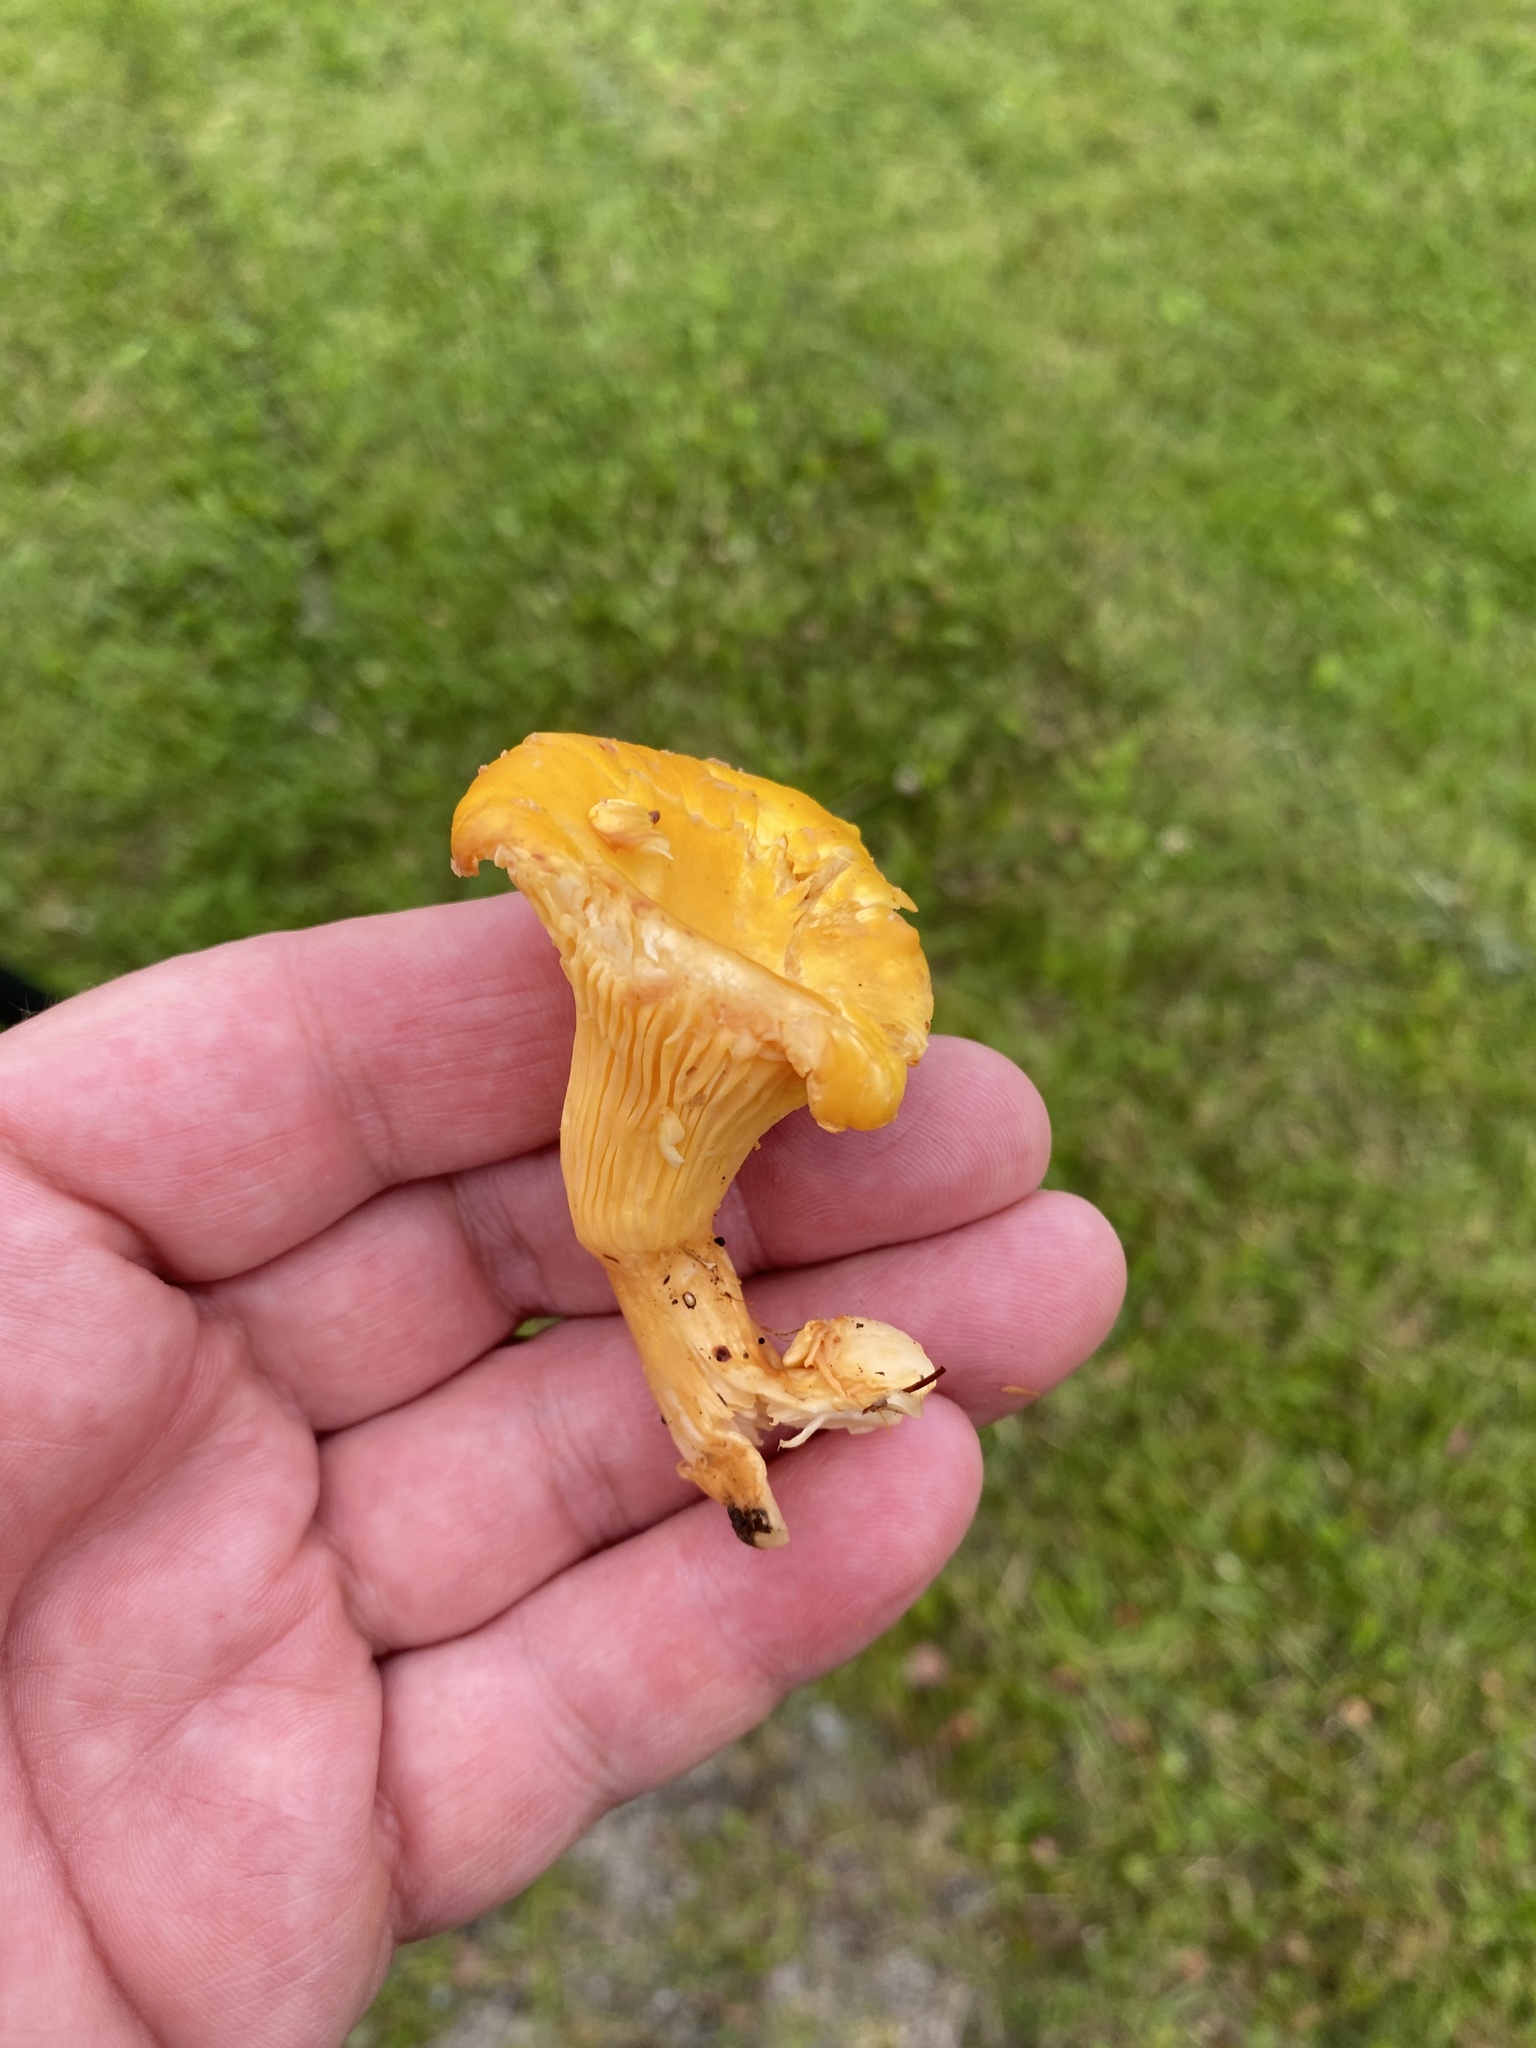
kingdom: Fungi
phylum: Basidiomycota
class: Agaricomycetes
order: Cantharellales
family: Hydnaceae
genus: Cantharellus
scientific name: Cantharellus cibarius
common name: Chanterelle
